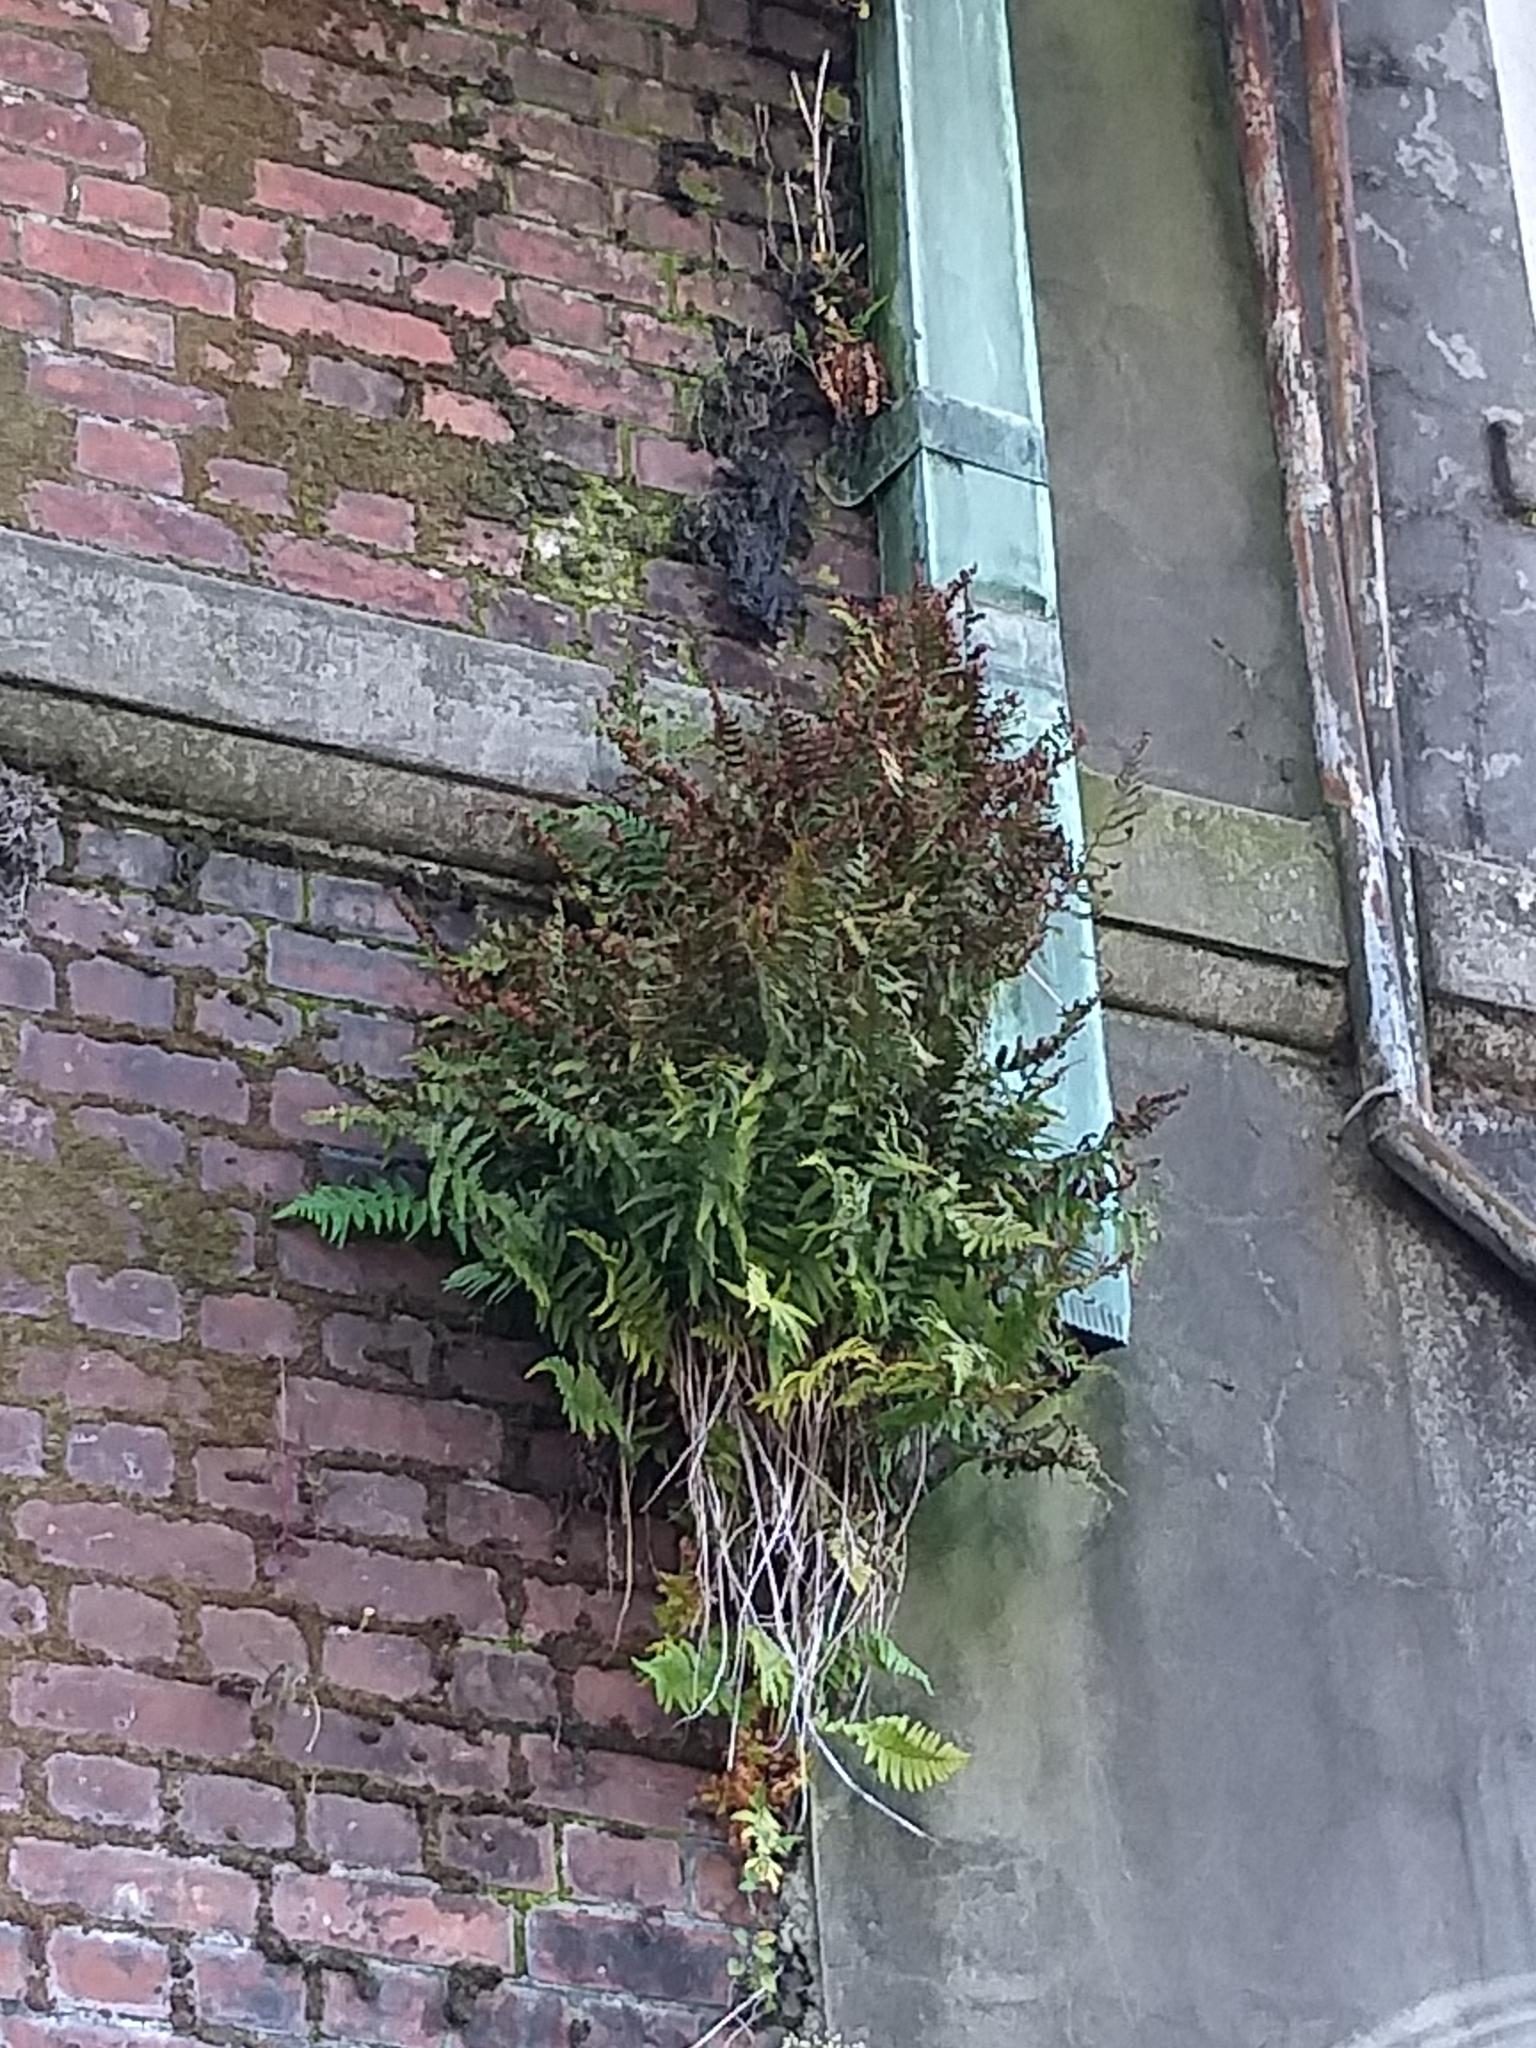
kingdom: Plantae
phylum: Tracheophyta
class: Polypodiopsida
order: Polypodiales
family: Polypodiaceae
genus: Polypodium
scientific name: Polypodium vulgare
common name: Common polypody
